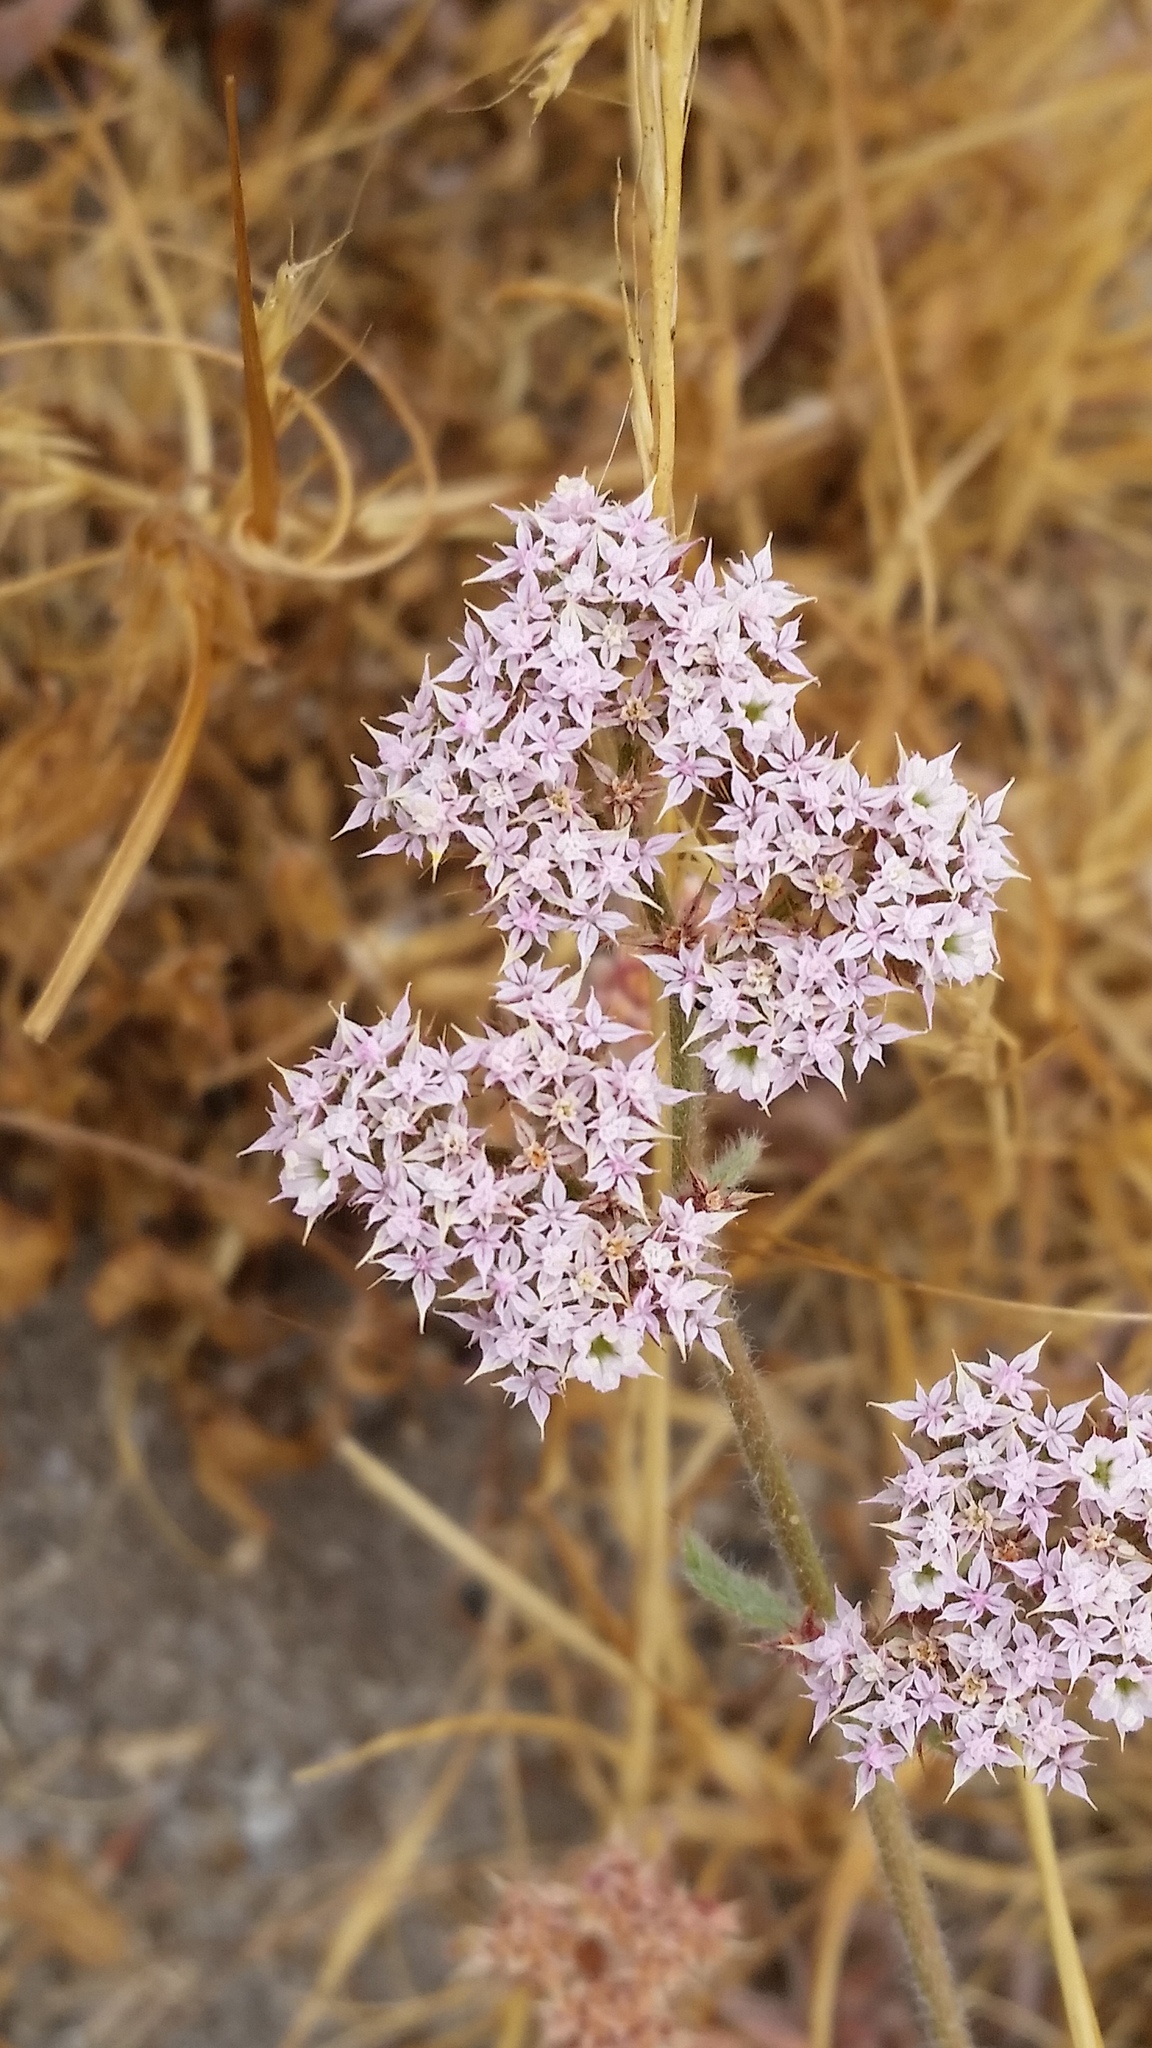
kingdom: Plantae
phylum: Tracheophyta
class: Magnoliopsida
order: Caryophyllales
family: Polygonaceae
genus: Chorizanthe
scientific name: Chorizanthe pungens
